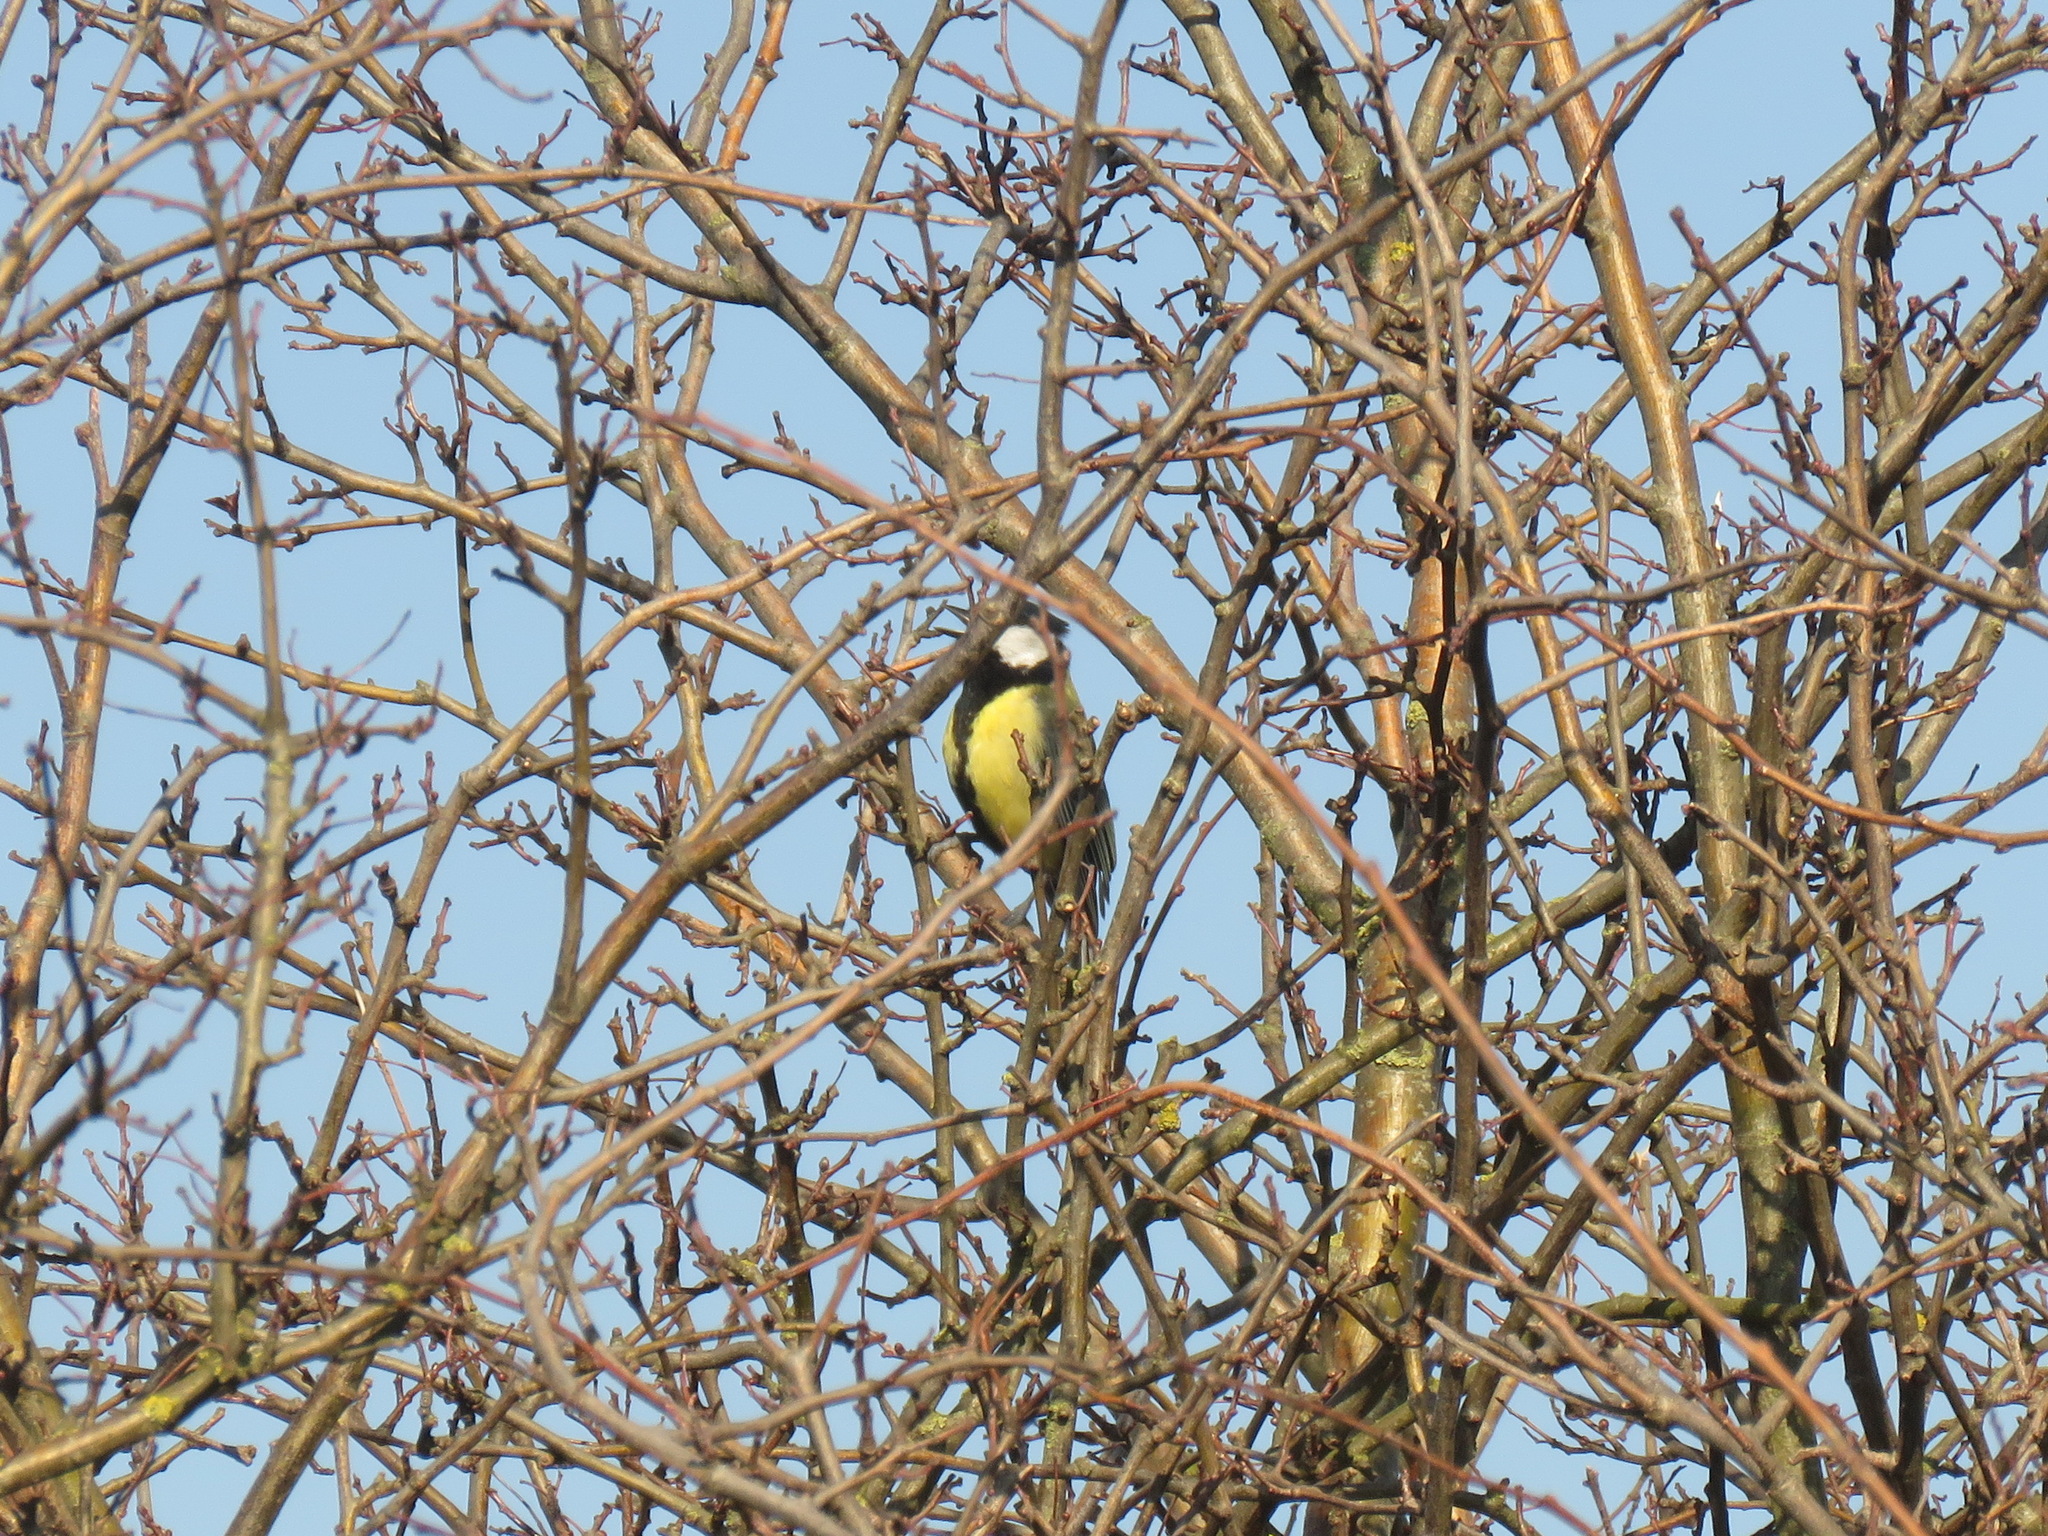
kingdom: Animalia
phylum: Chordata
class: Aves
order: Passeriformes
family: Paridae
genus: Parus
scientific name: Parus major
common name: Great tit
